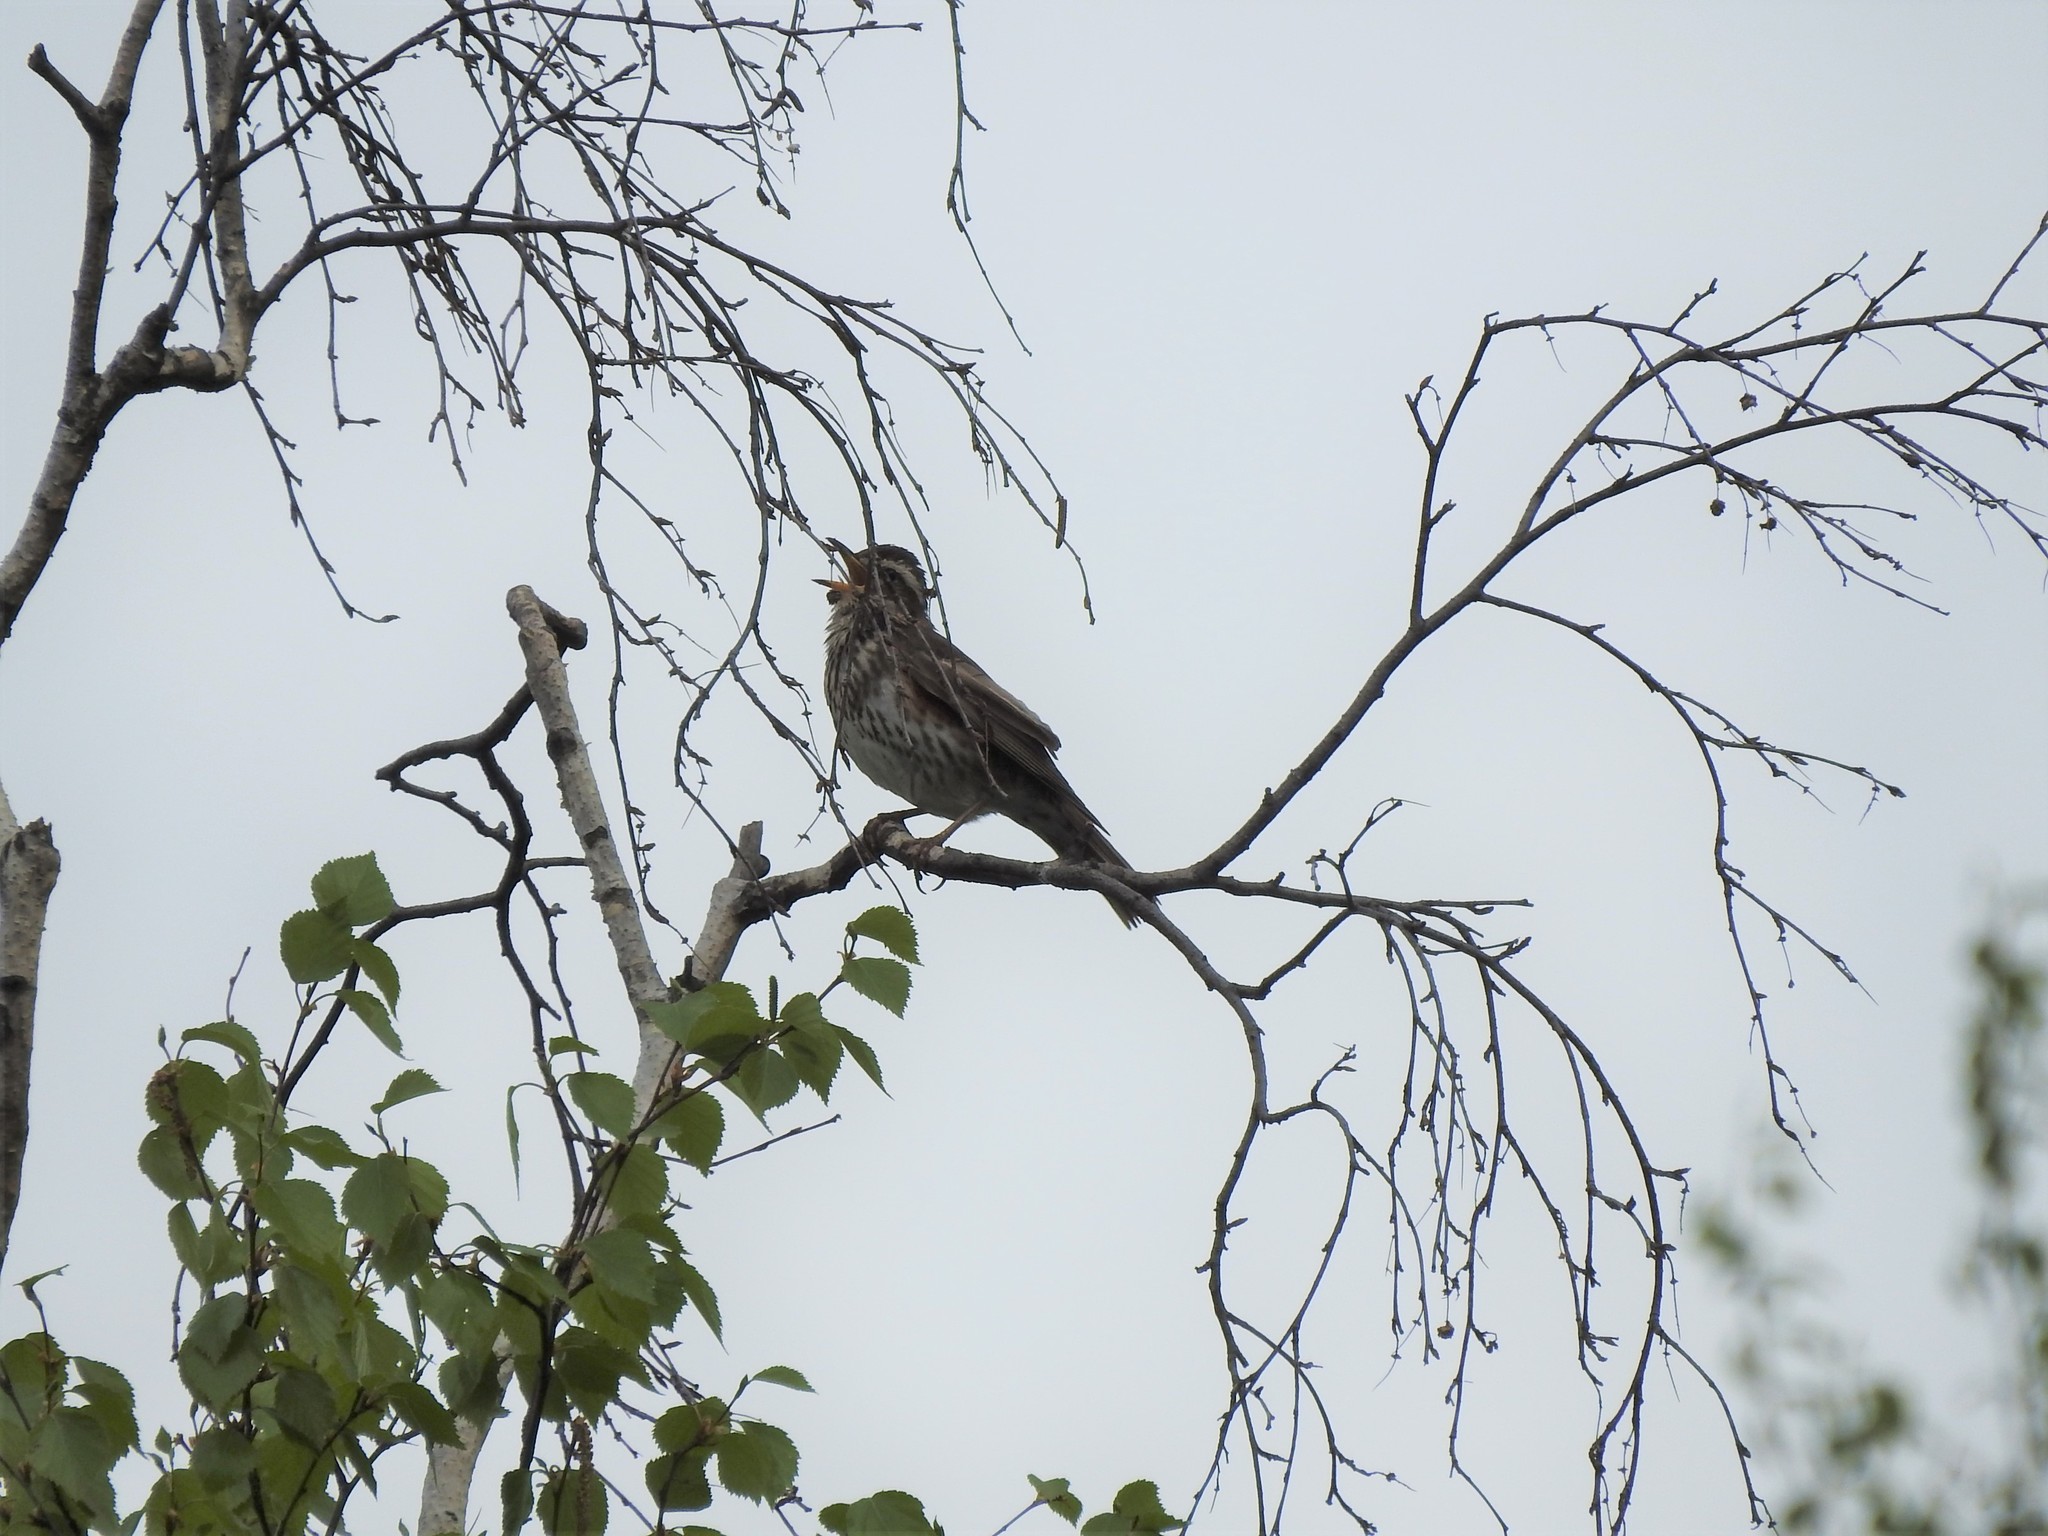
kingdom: Animalia
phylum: Chordata
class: Aves
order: Passeriformes
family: Turdidae
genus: Turdus
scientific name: Turdus iliacus
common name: Redwing
